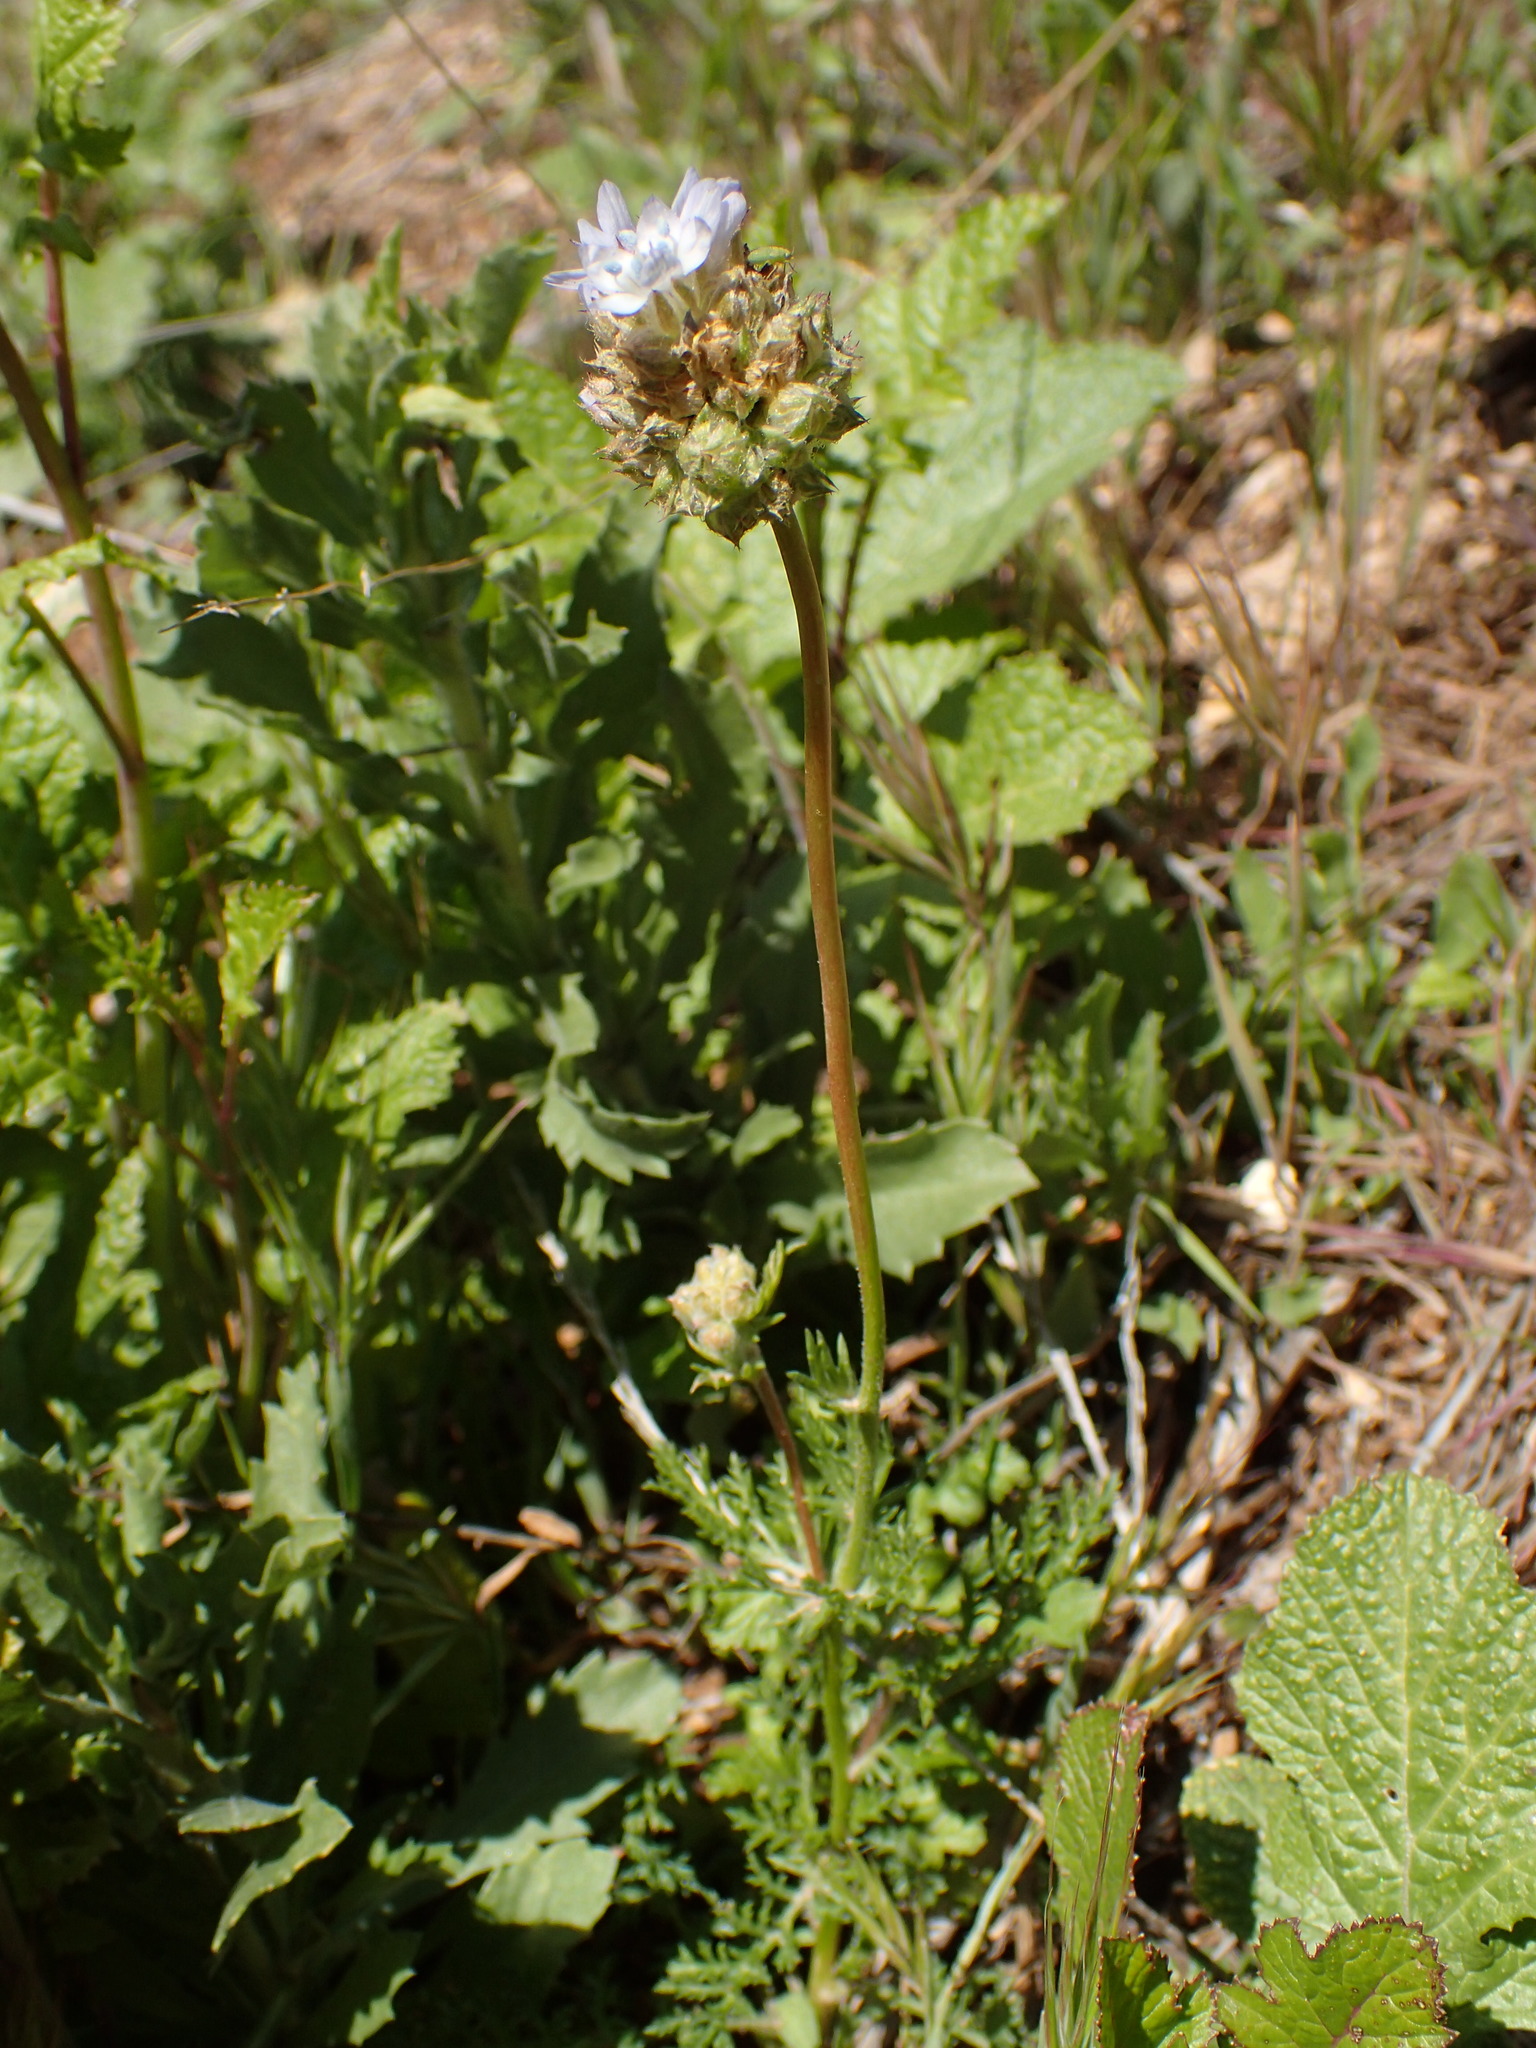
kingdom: Plantae
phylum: Tracheophyta
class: Magnoliopsida
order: Ericales
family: Polemoniaceae
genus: Gilia
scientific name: Gilia capitata
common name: Bluehead gilia
